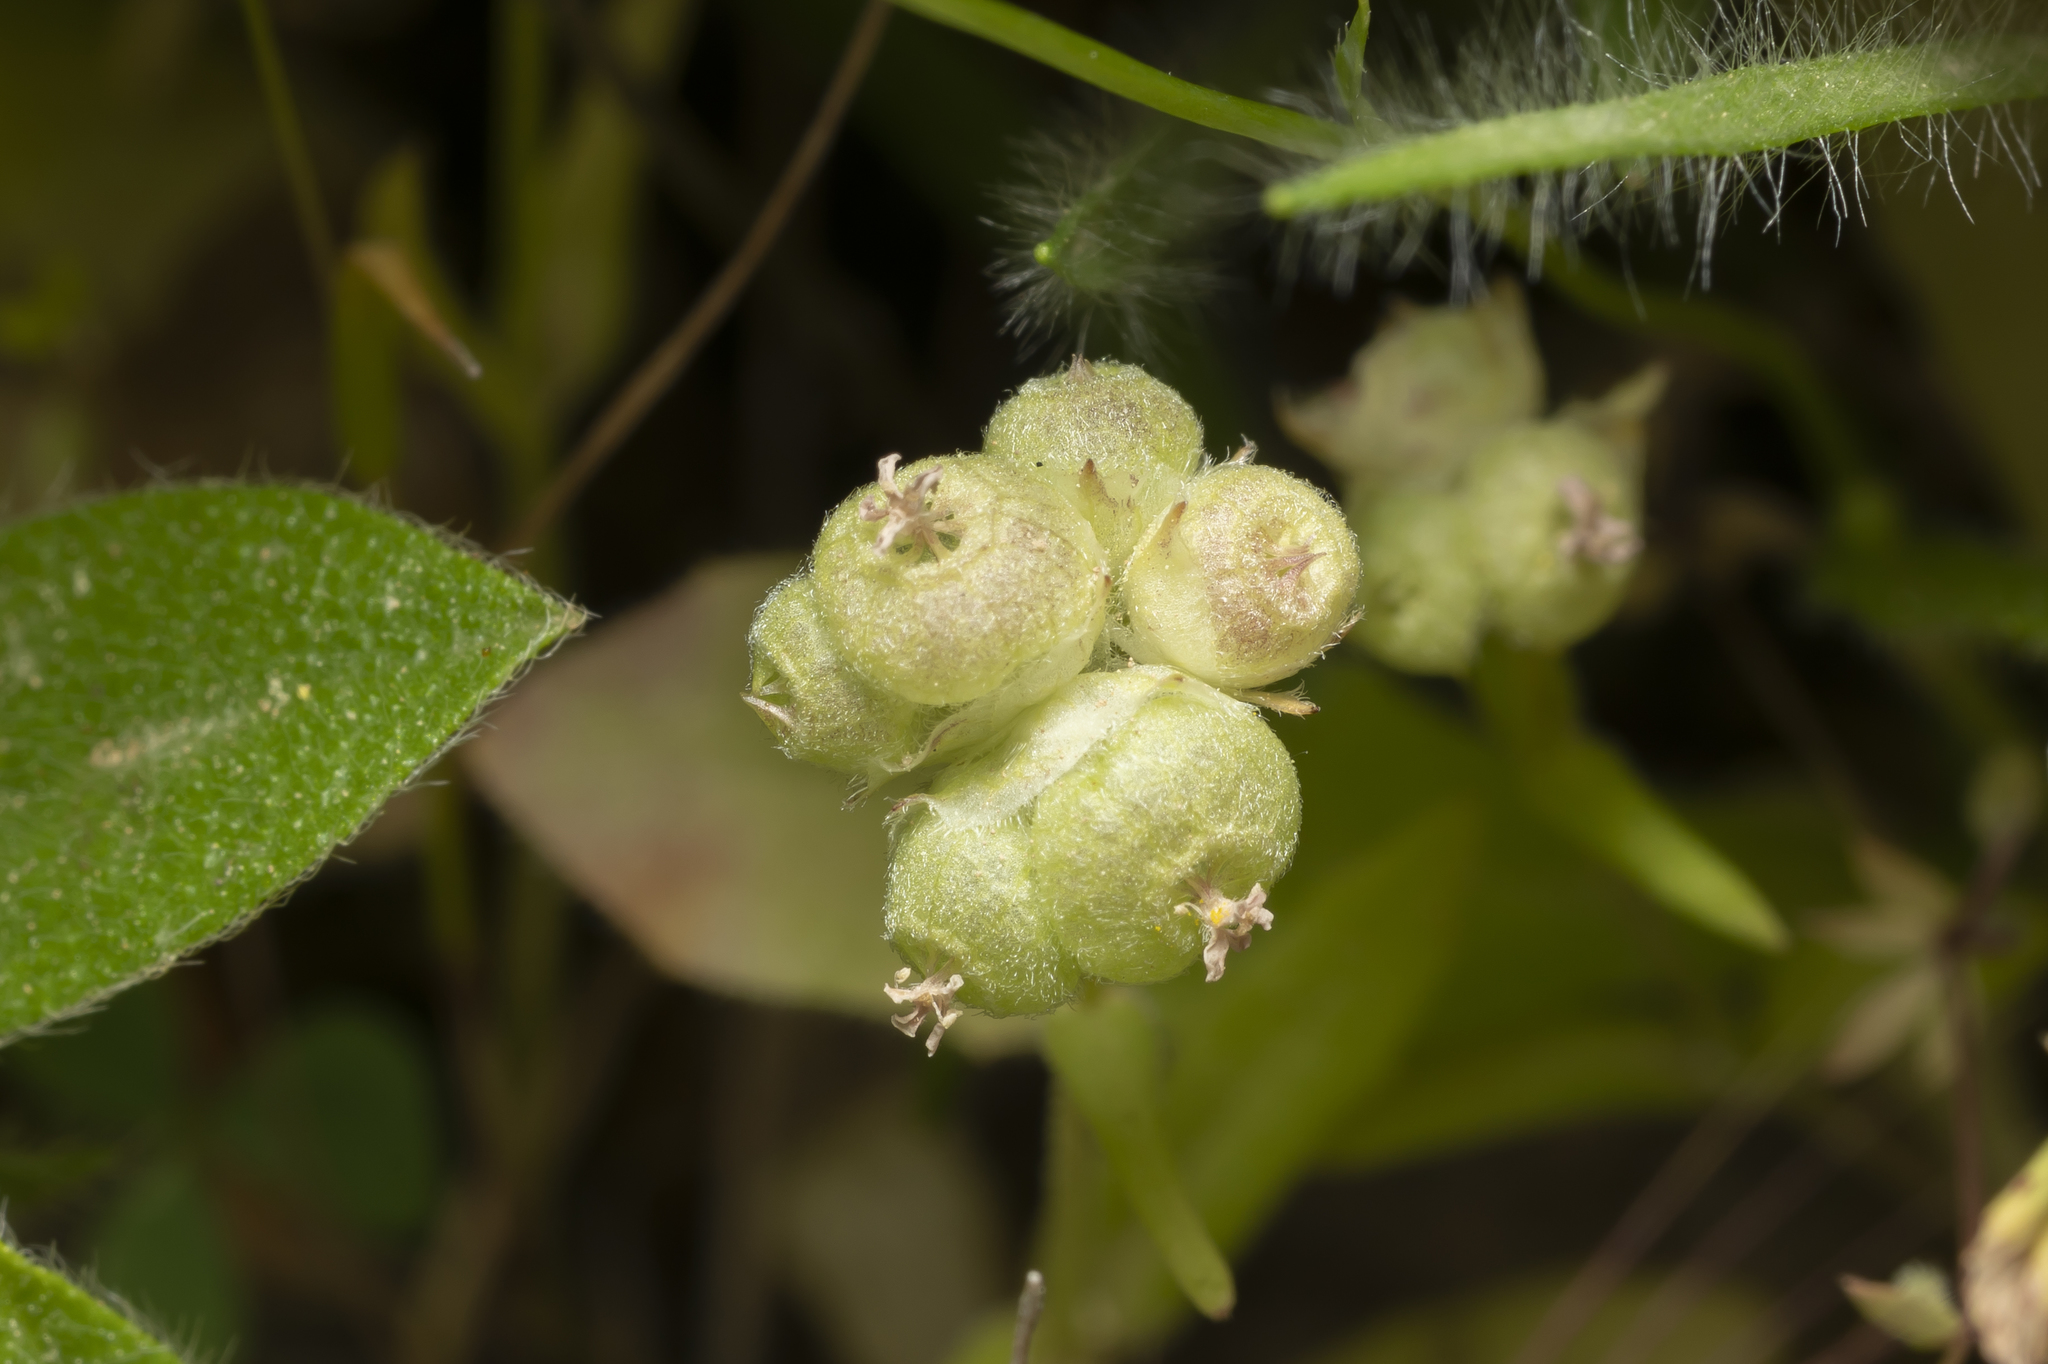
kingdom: Plantae
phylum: Tracheophyta
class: Magnoliopsida
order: Dipsacales
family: Caprifoliaceae
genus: Valerianella
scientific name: Valerianella vesicaria
